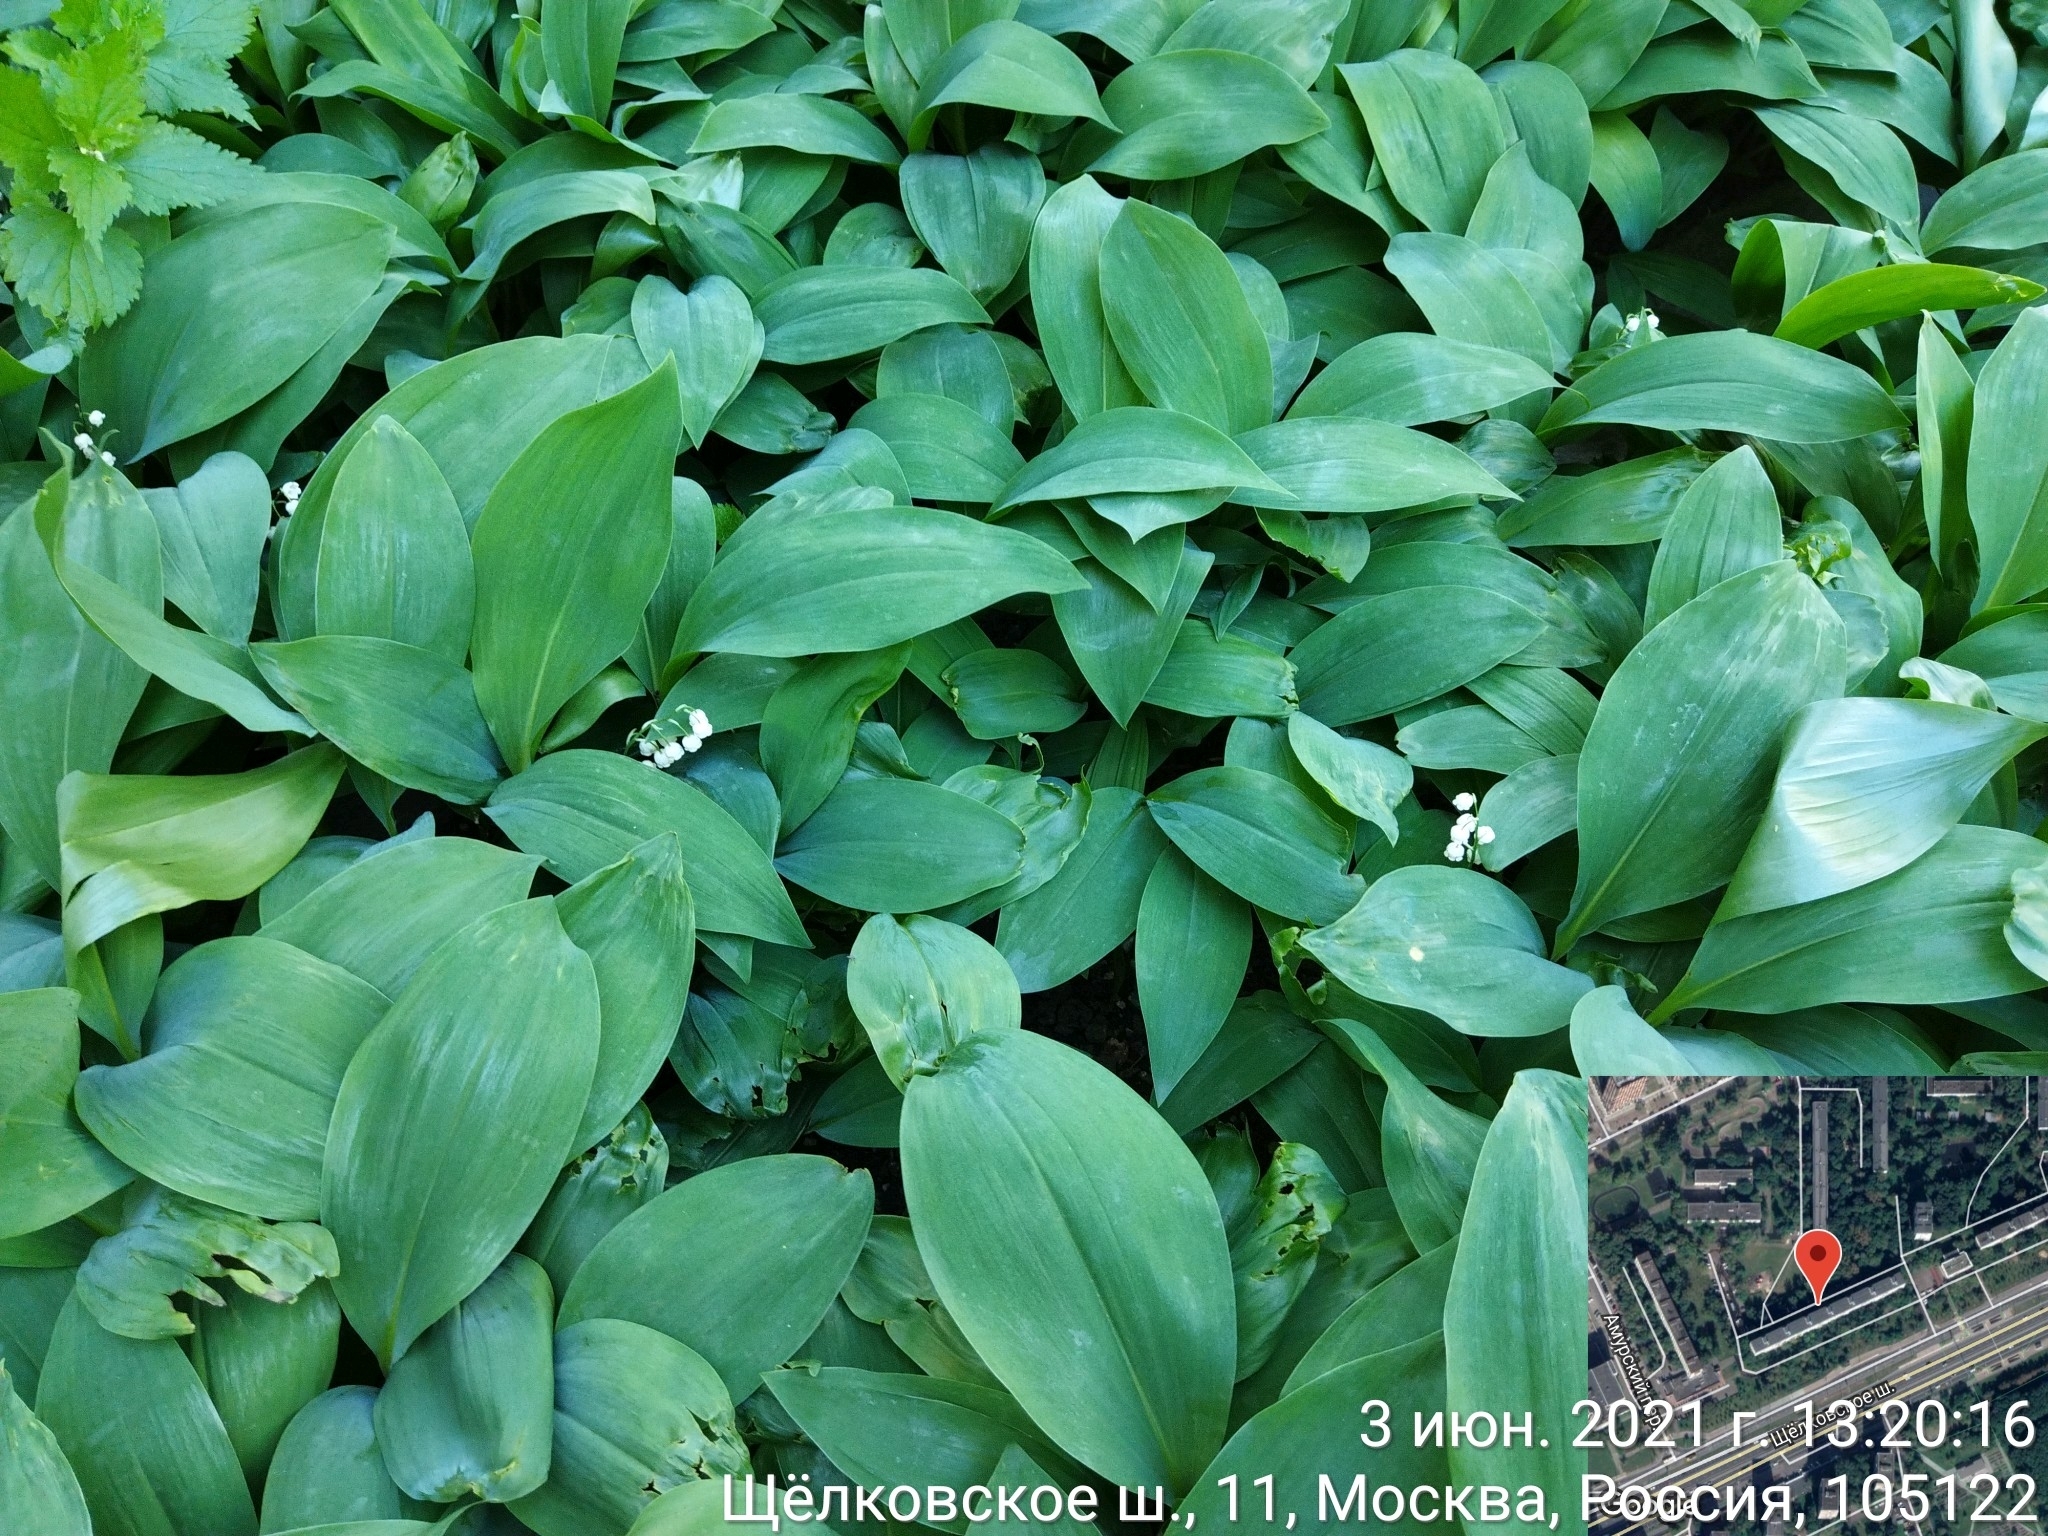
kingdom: Plantae
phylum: Tracheophyta
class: Liliopsida
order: Asparagales
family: Asparagaceae
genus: Convallaria
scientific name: Convallaria majalis
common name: Lily-of-the-valley
